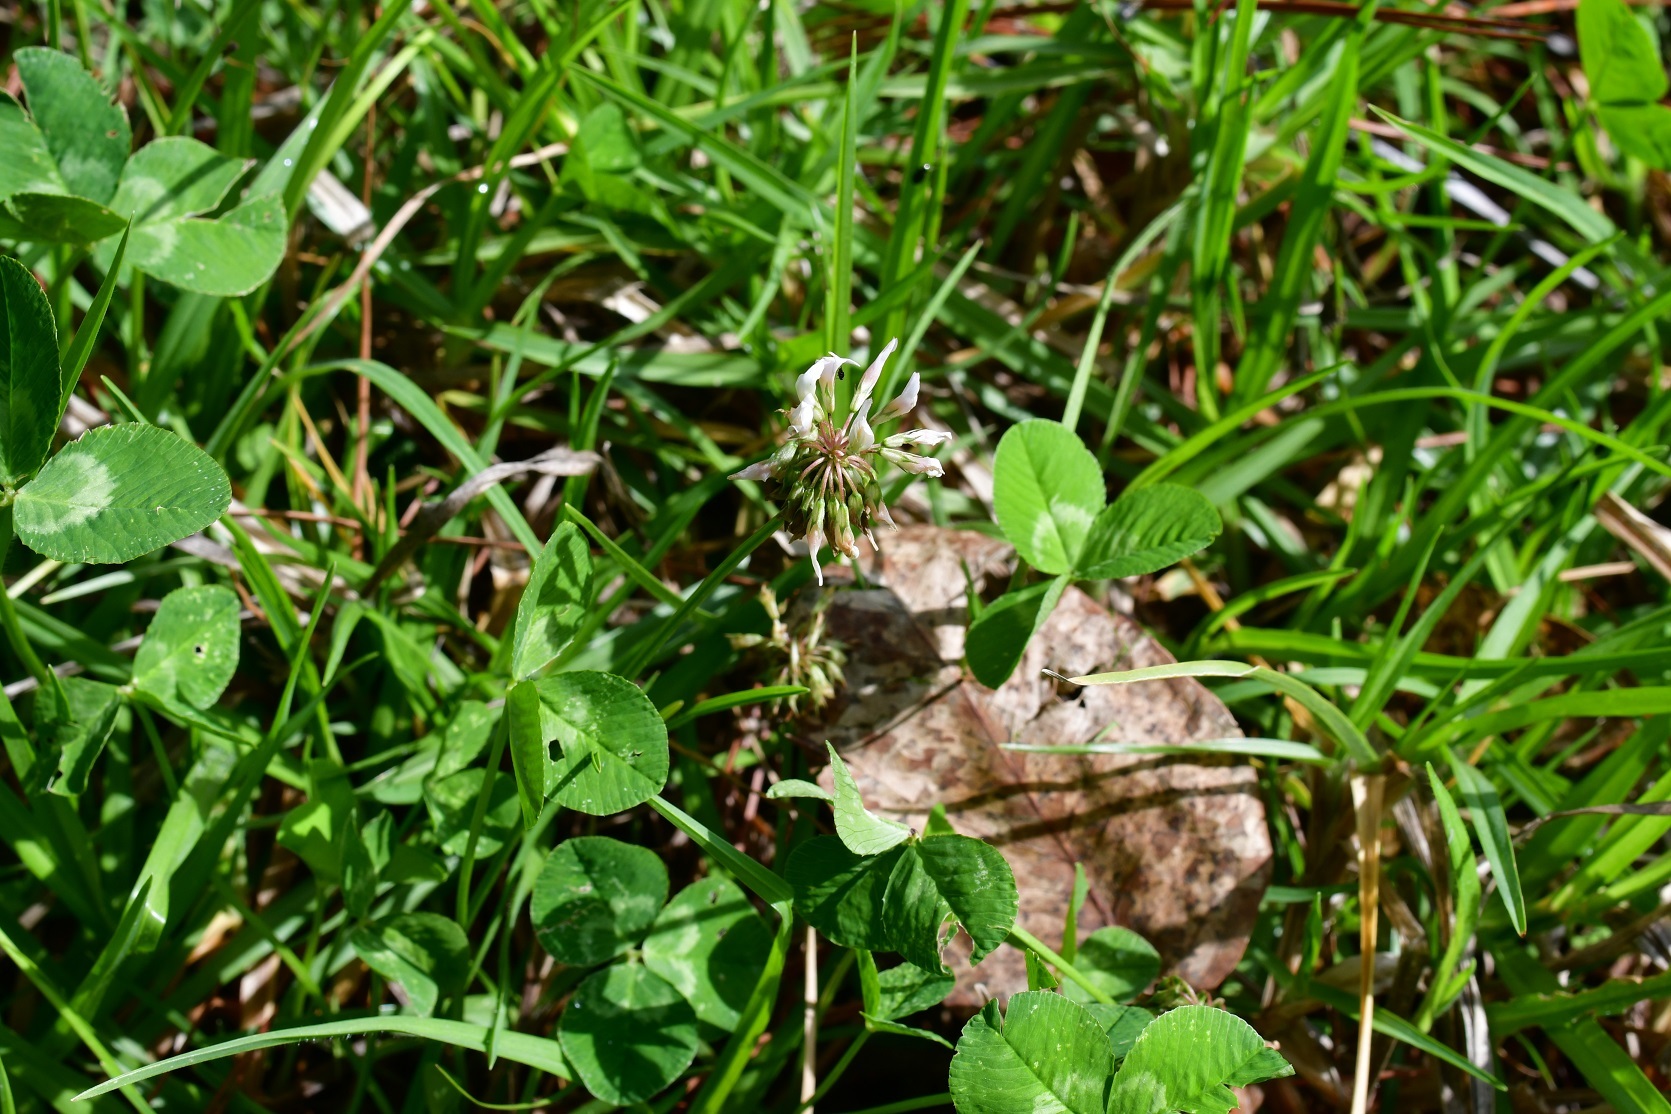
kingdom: Plantae
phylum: Tracheophyta
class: Magnoliopsida
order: Fabales
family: Fabaceae
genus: Trifolium
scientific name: Trifolium repens
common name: White clover
